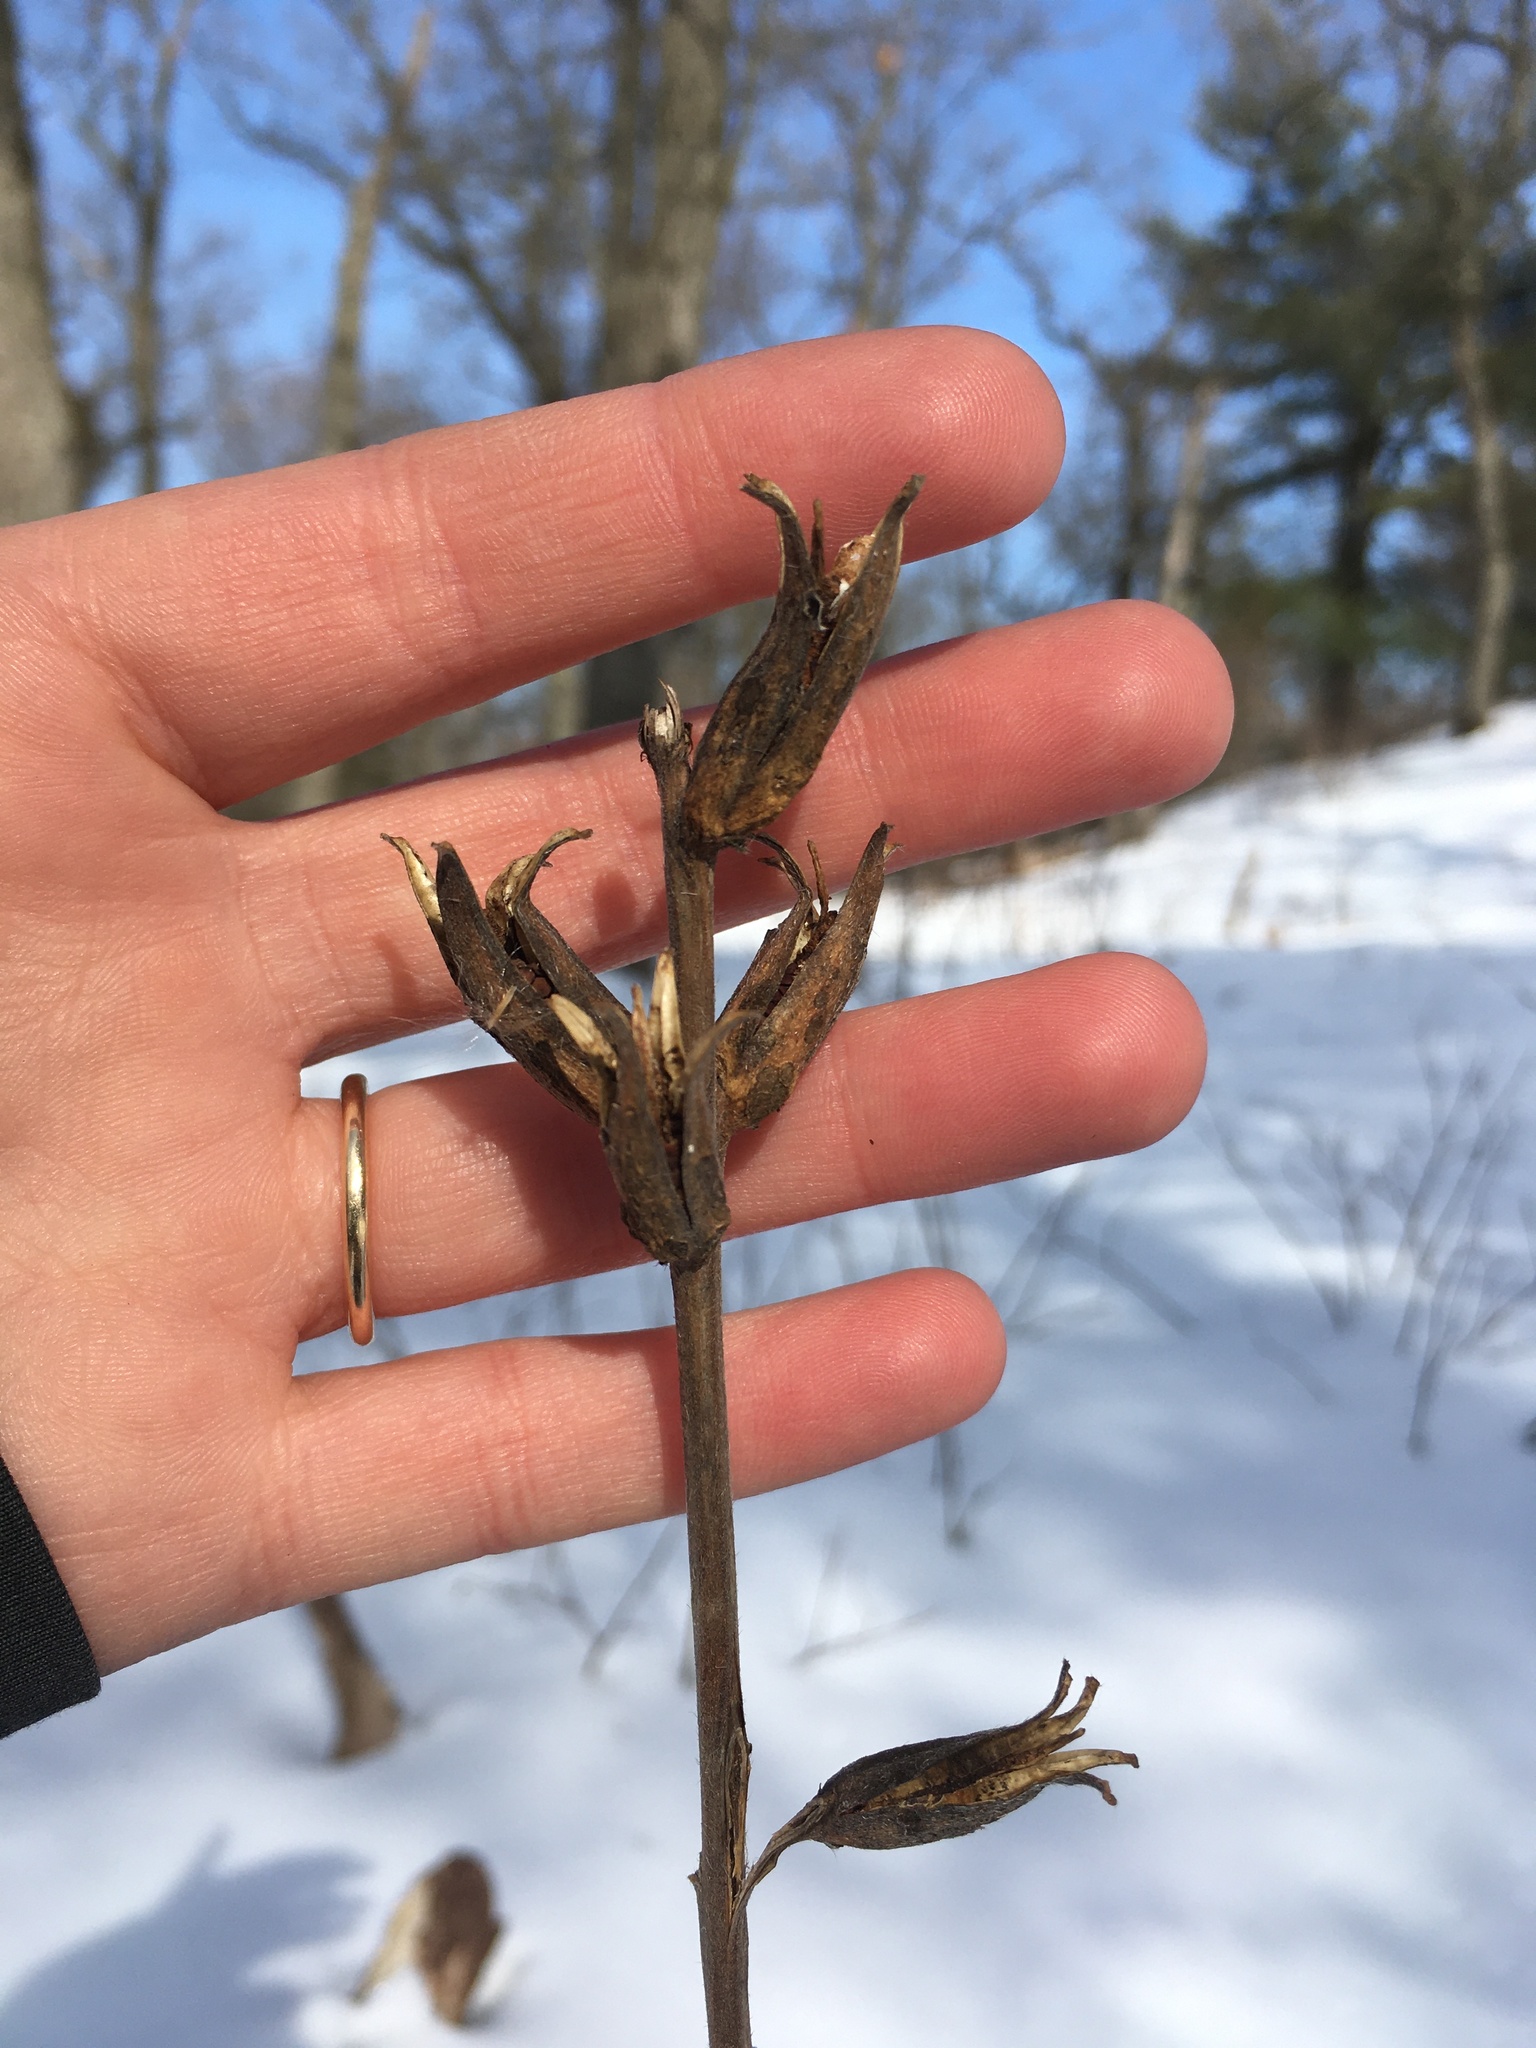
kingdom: Plantae
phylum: Tracheophyta
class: Magnoliopsida
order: Myrtales
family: Onagraceae
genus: Oenothera
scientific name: Oenothera biennis
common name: Common evening-primrose
